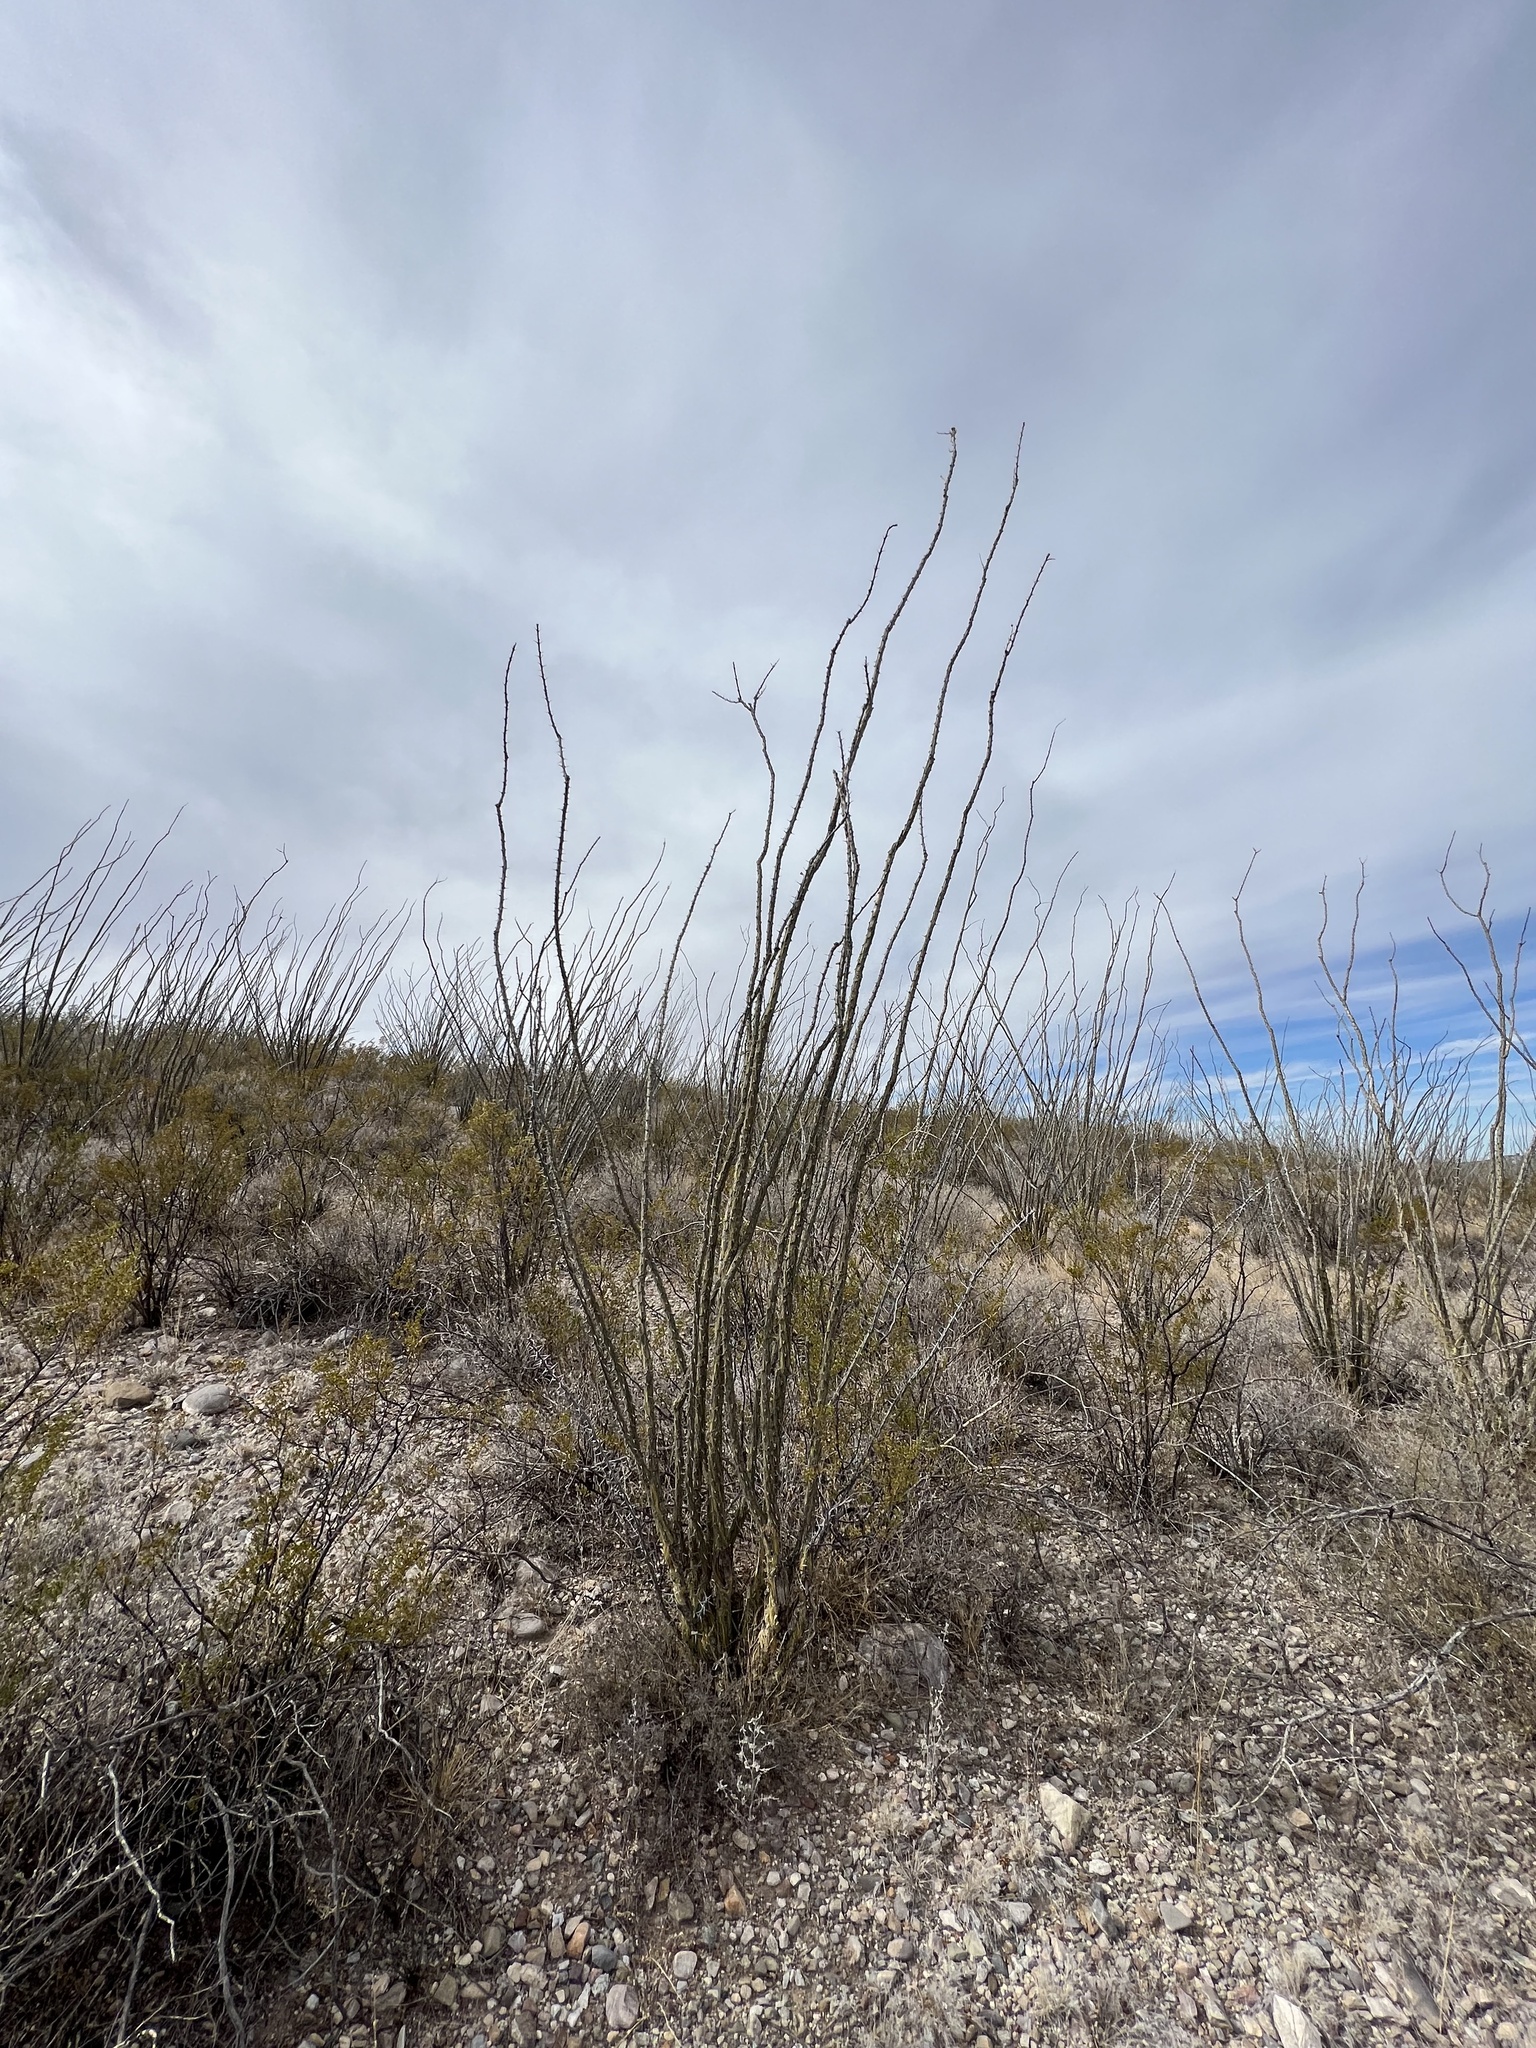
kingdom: Plantae
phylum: Tracheophyta
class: Magnoliopsida
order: Ericales
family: Fouquieriaceae
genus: Fouquieria
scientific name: Fouquieria splendens
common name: Vine-cactus
